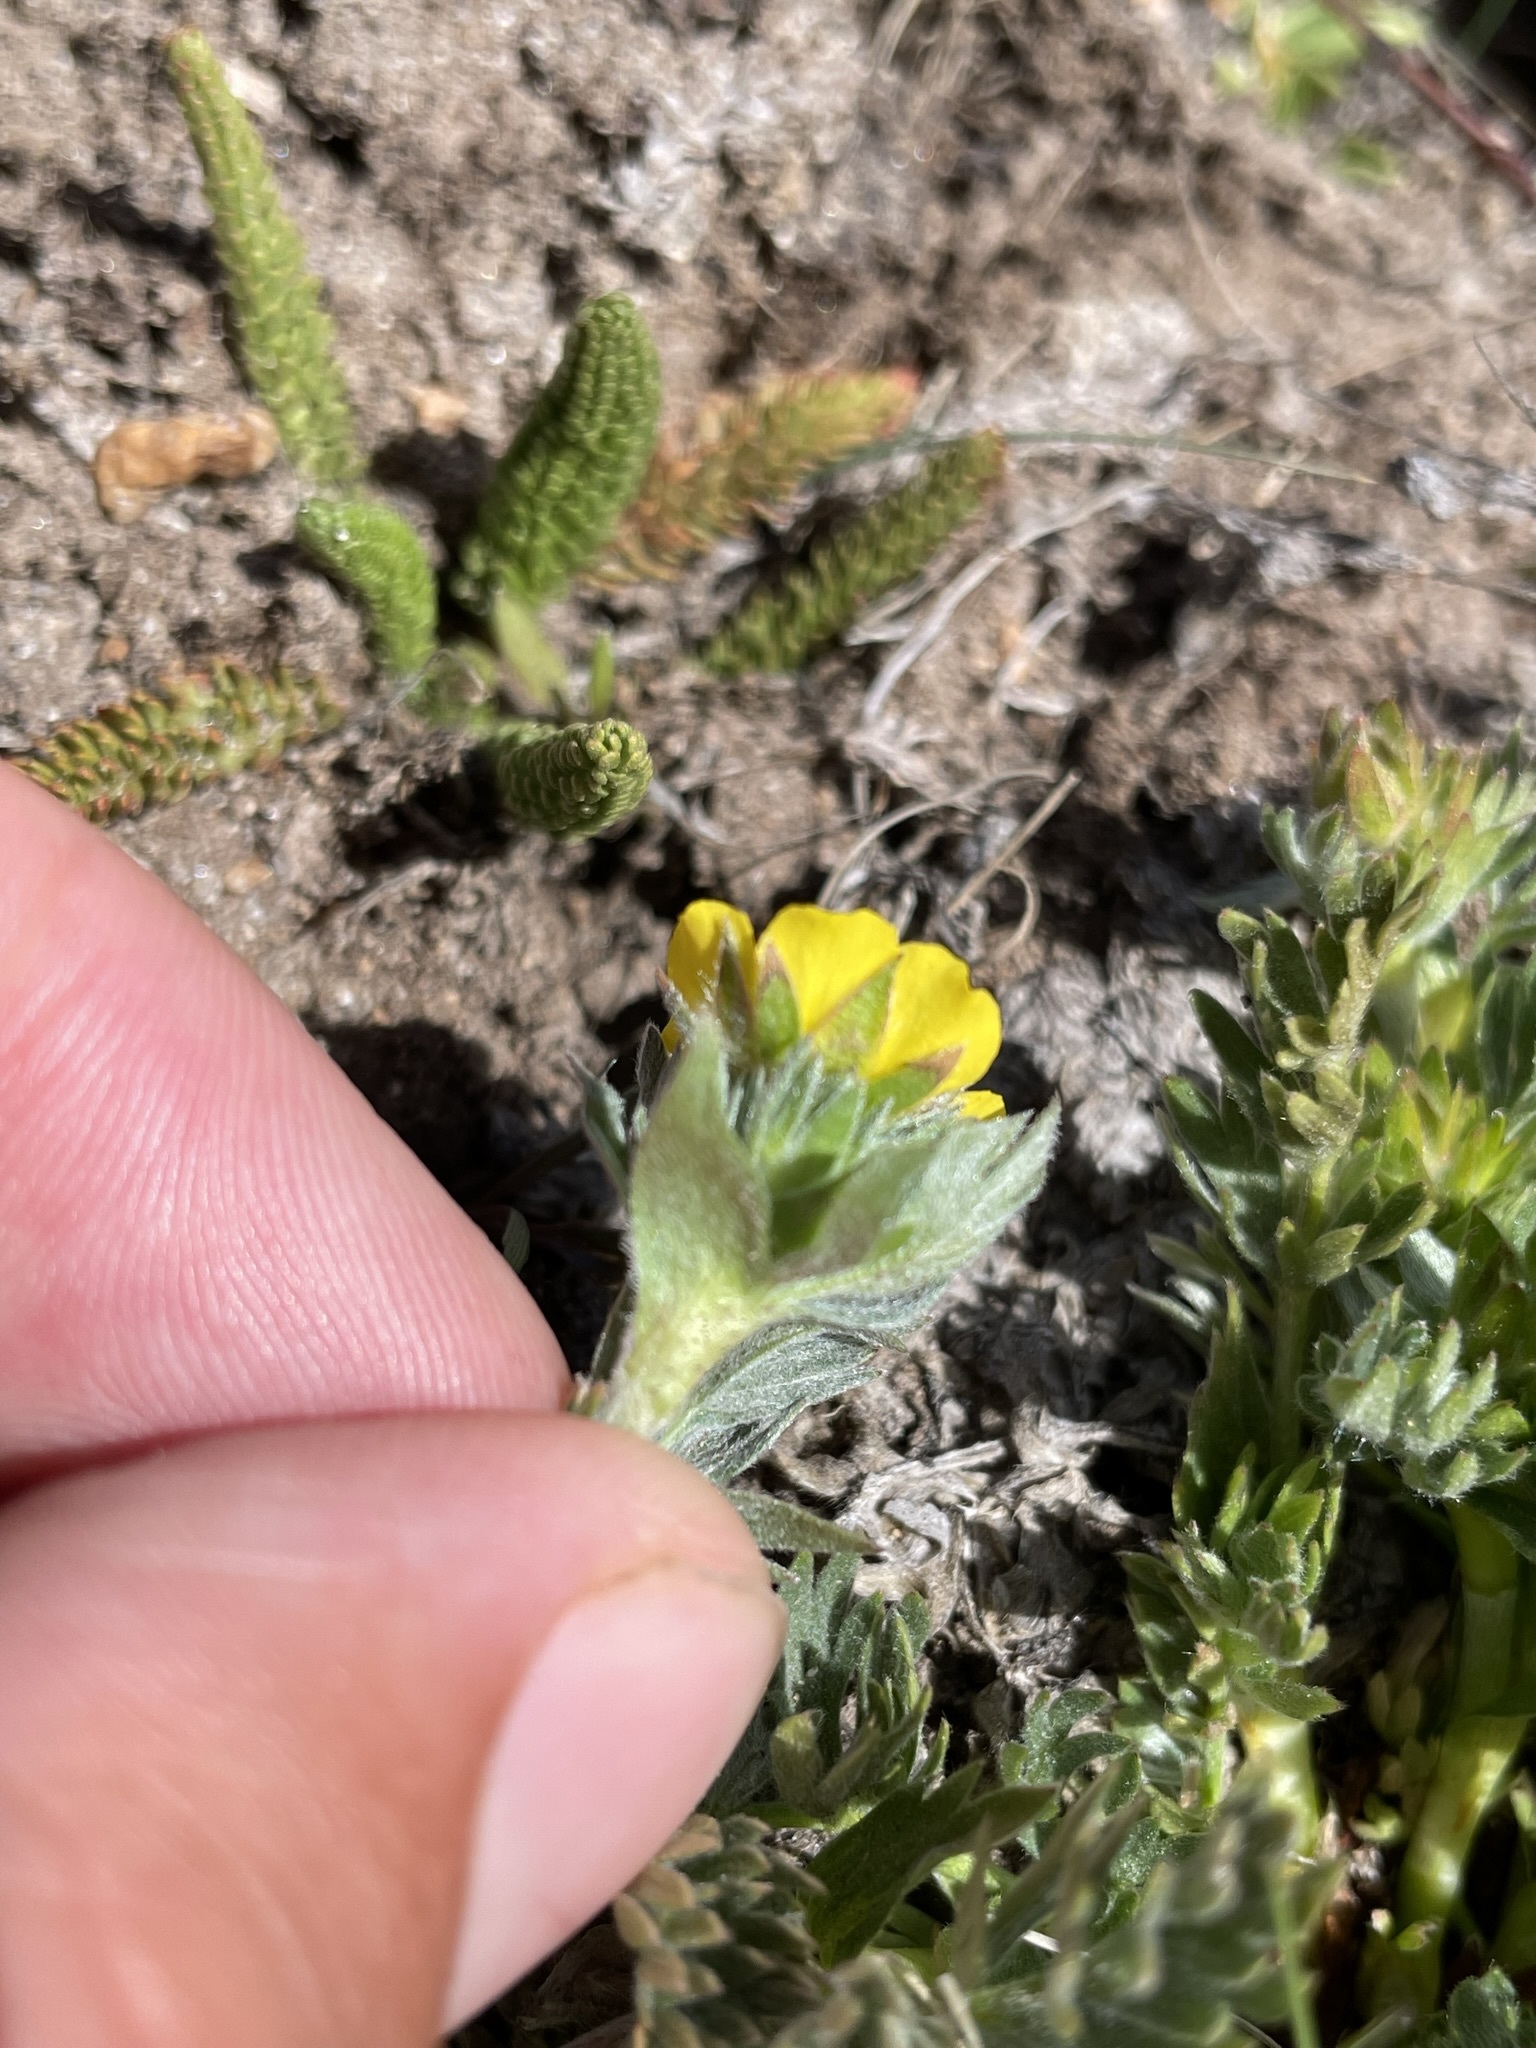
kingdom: Plantae
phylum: Tracheophyta
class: Magnoliopsida
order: Rosales
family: Rosaceae
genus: Potentilla
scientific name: Potentilla breweri
